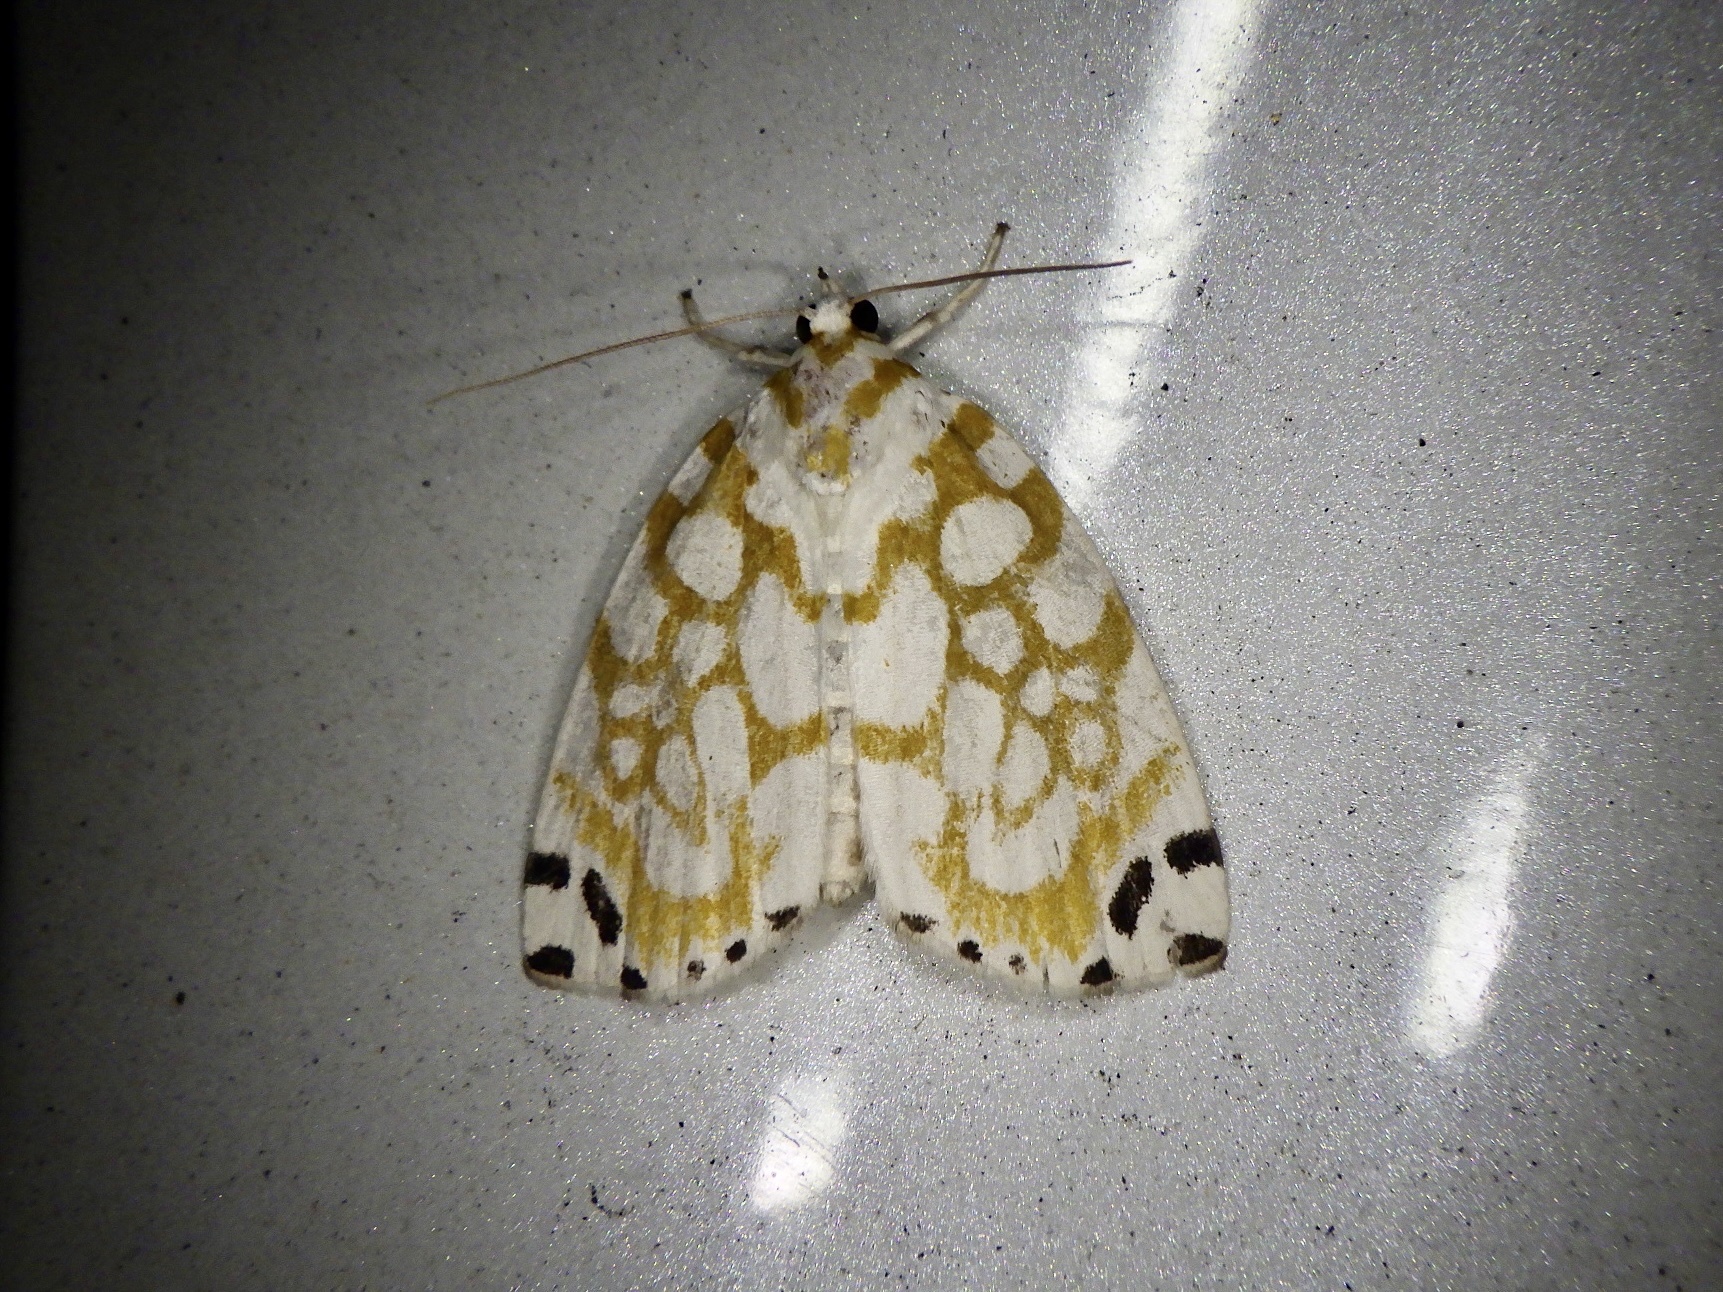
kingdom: Animalia
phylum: Arthropoda
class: Insecta
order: Lepidoptera
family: Nolidae
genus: Sinna
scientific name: Sinna extrema
